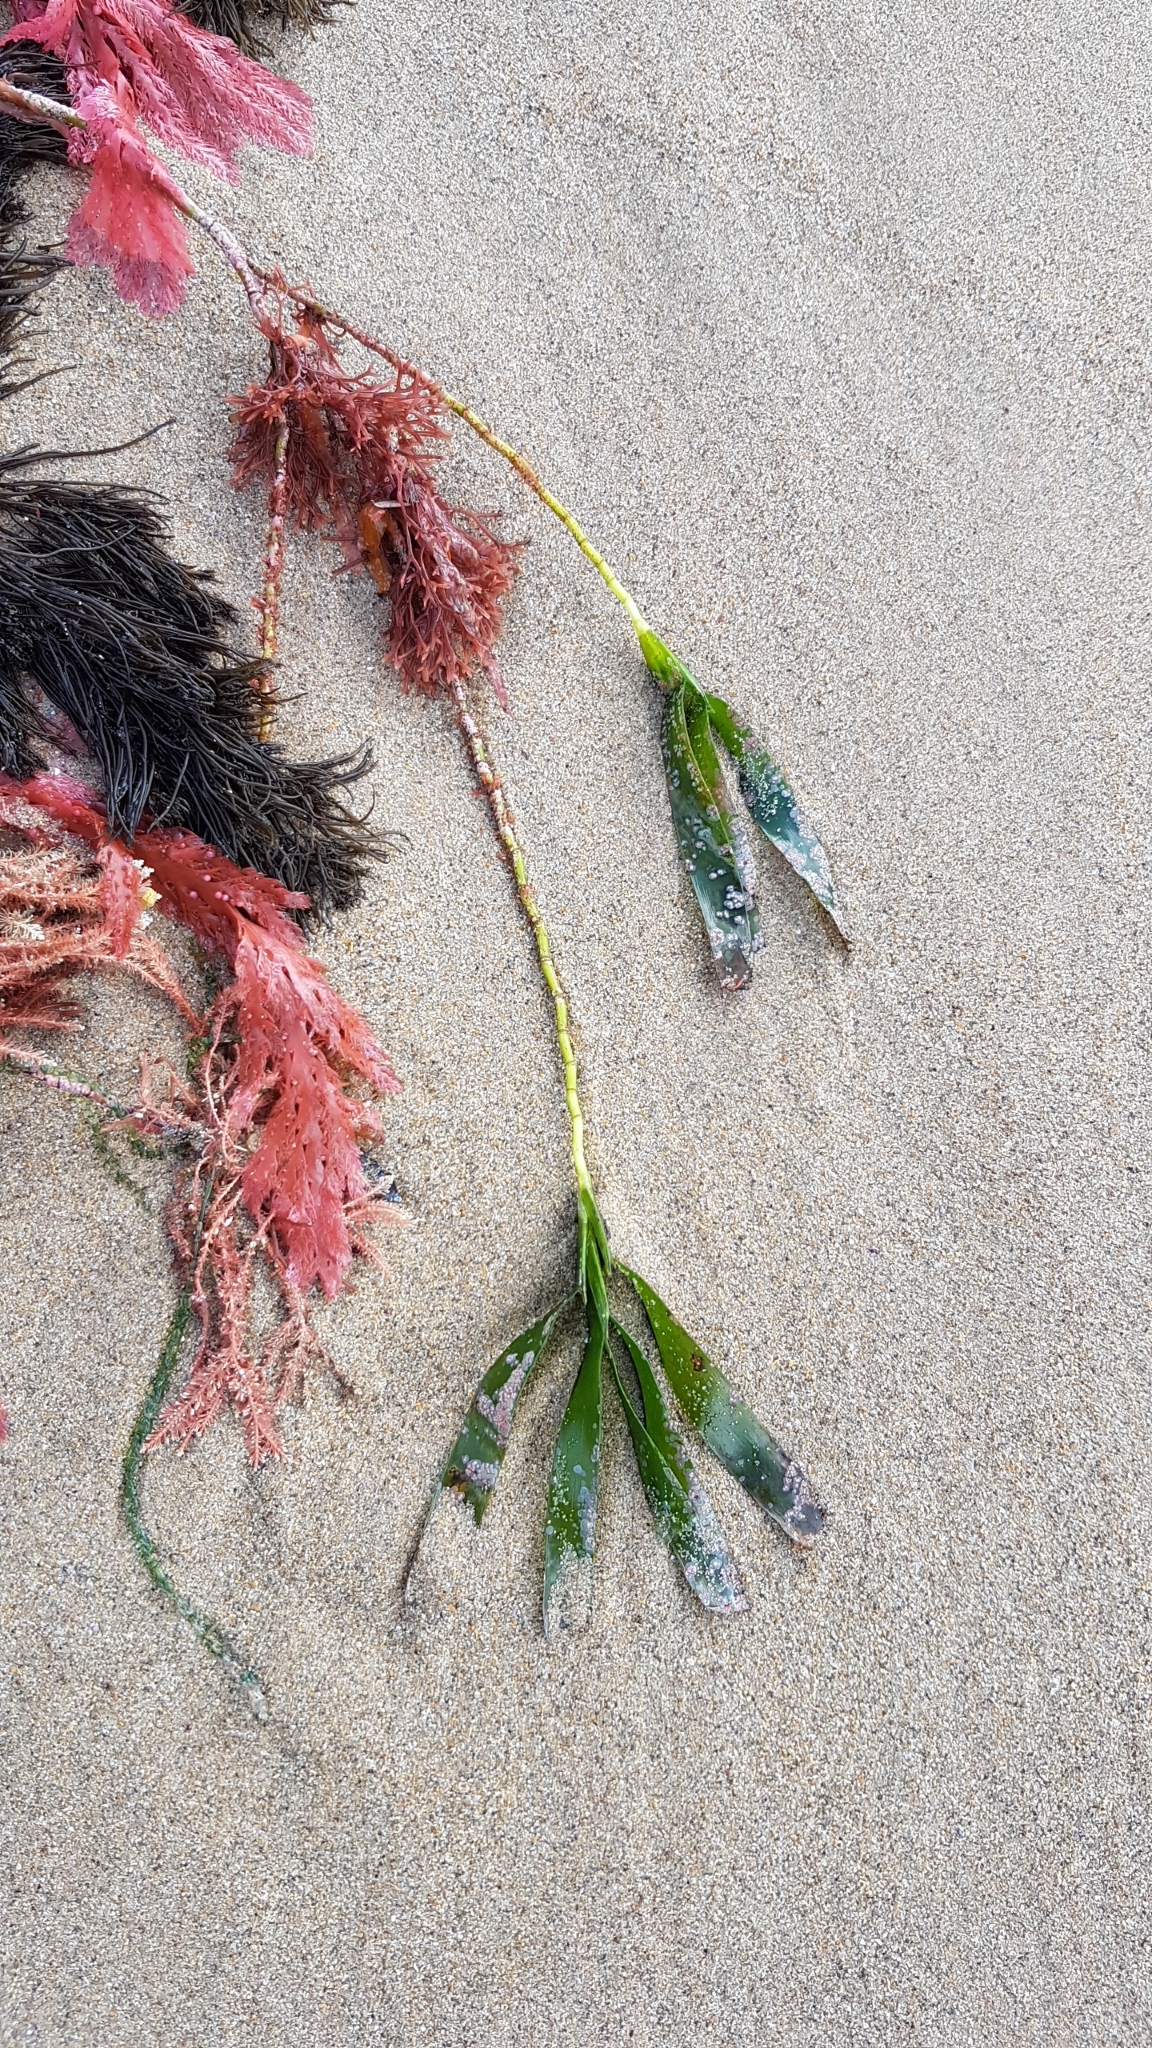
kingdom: Plantae
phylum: Tracheophyta
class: Liliopsida
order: Alismatales
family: Cymodoceaceae
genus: Amphibolis
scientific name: Amphibolis antarctica
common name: Species code: aa
